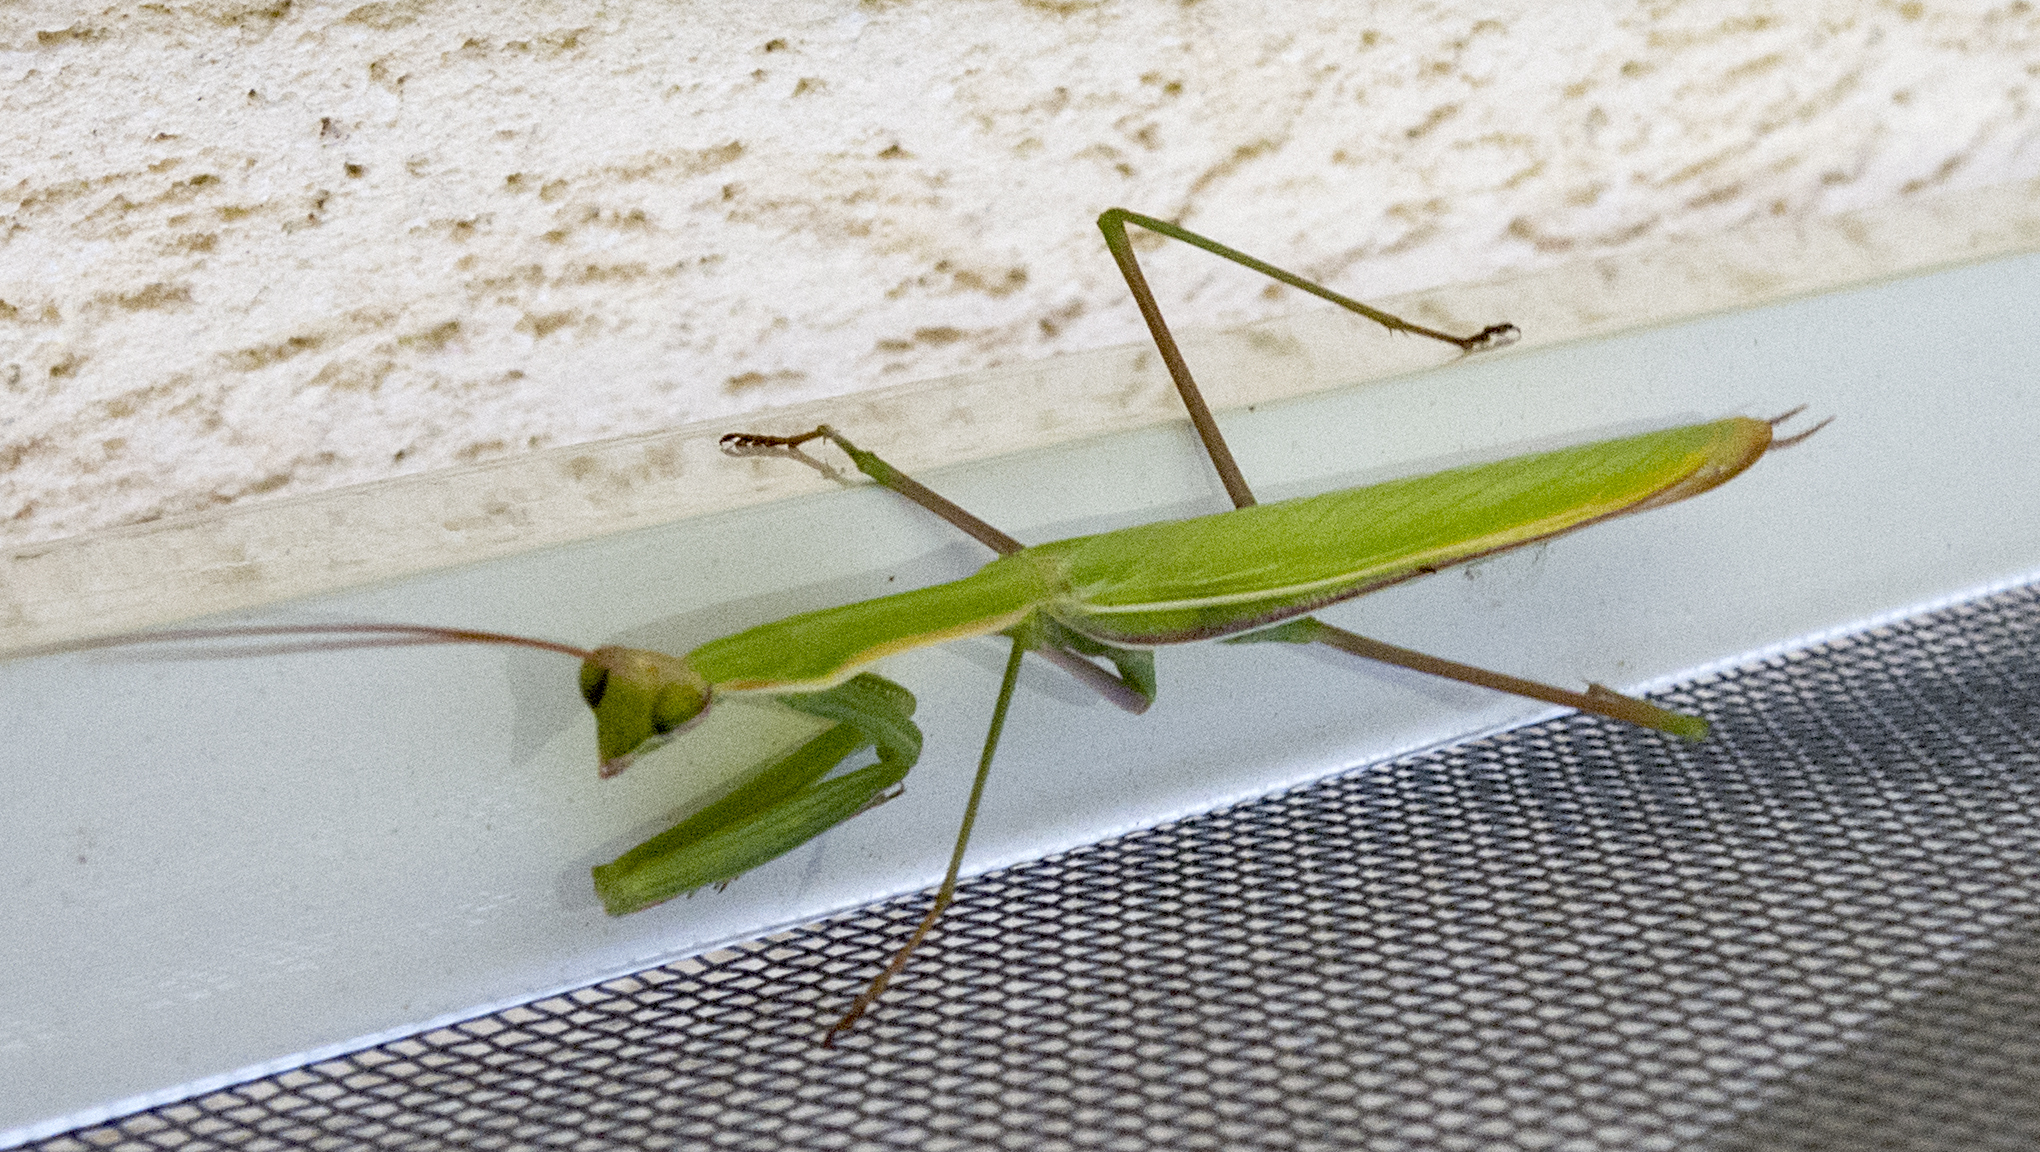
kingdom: Animalia
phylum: Arthropoda
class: Insecta
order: Mantodea
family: Mantidae
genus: Mantis
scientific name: Mantis religiosa
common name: Praying mantis
